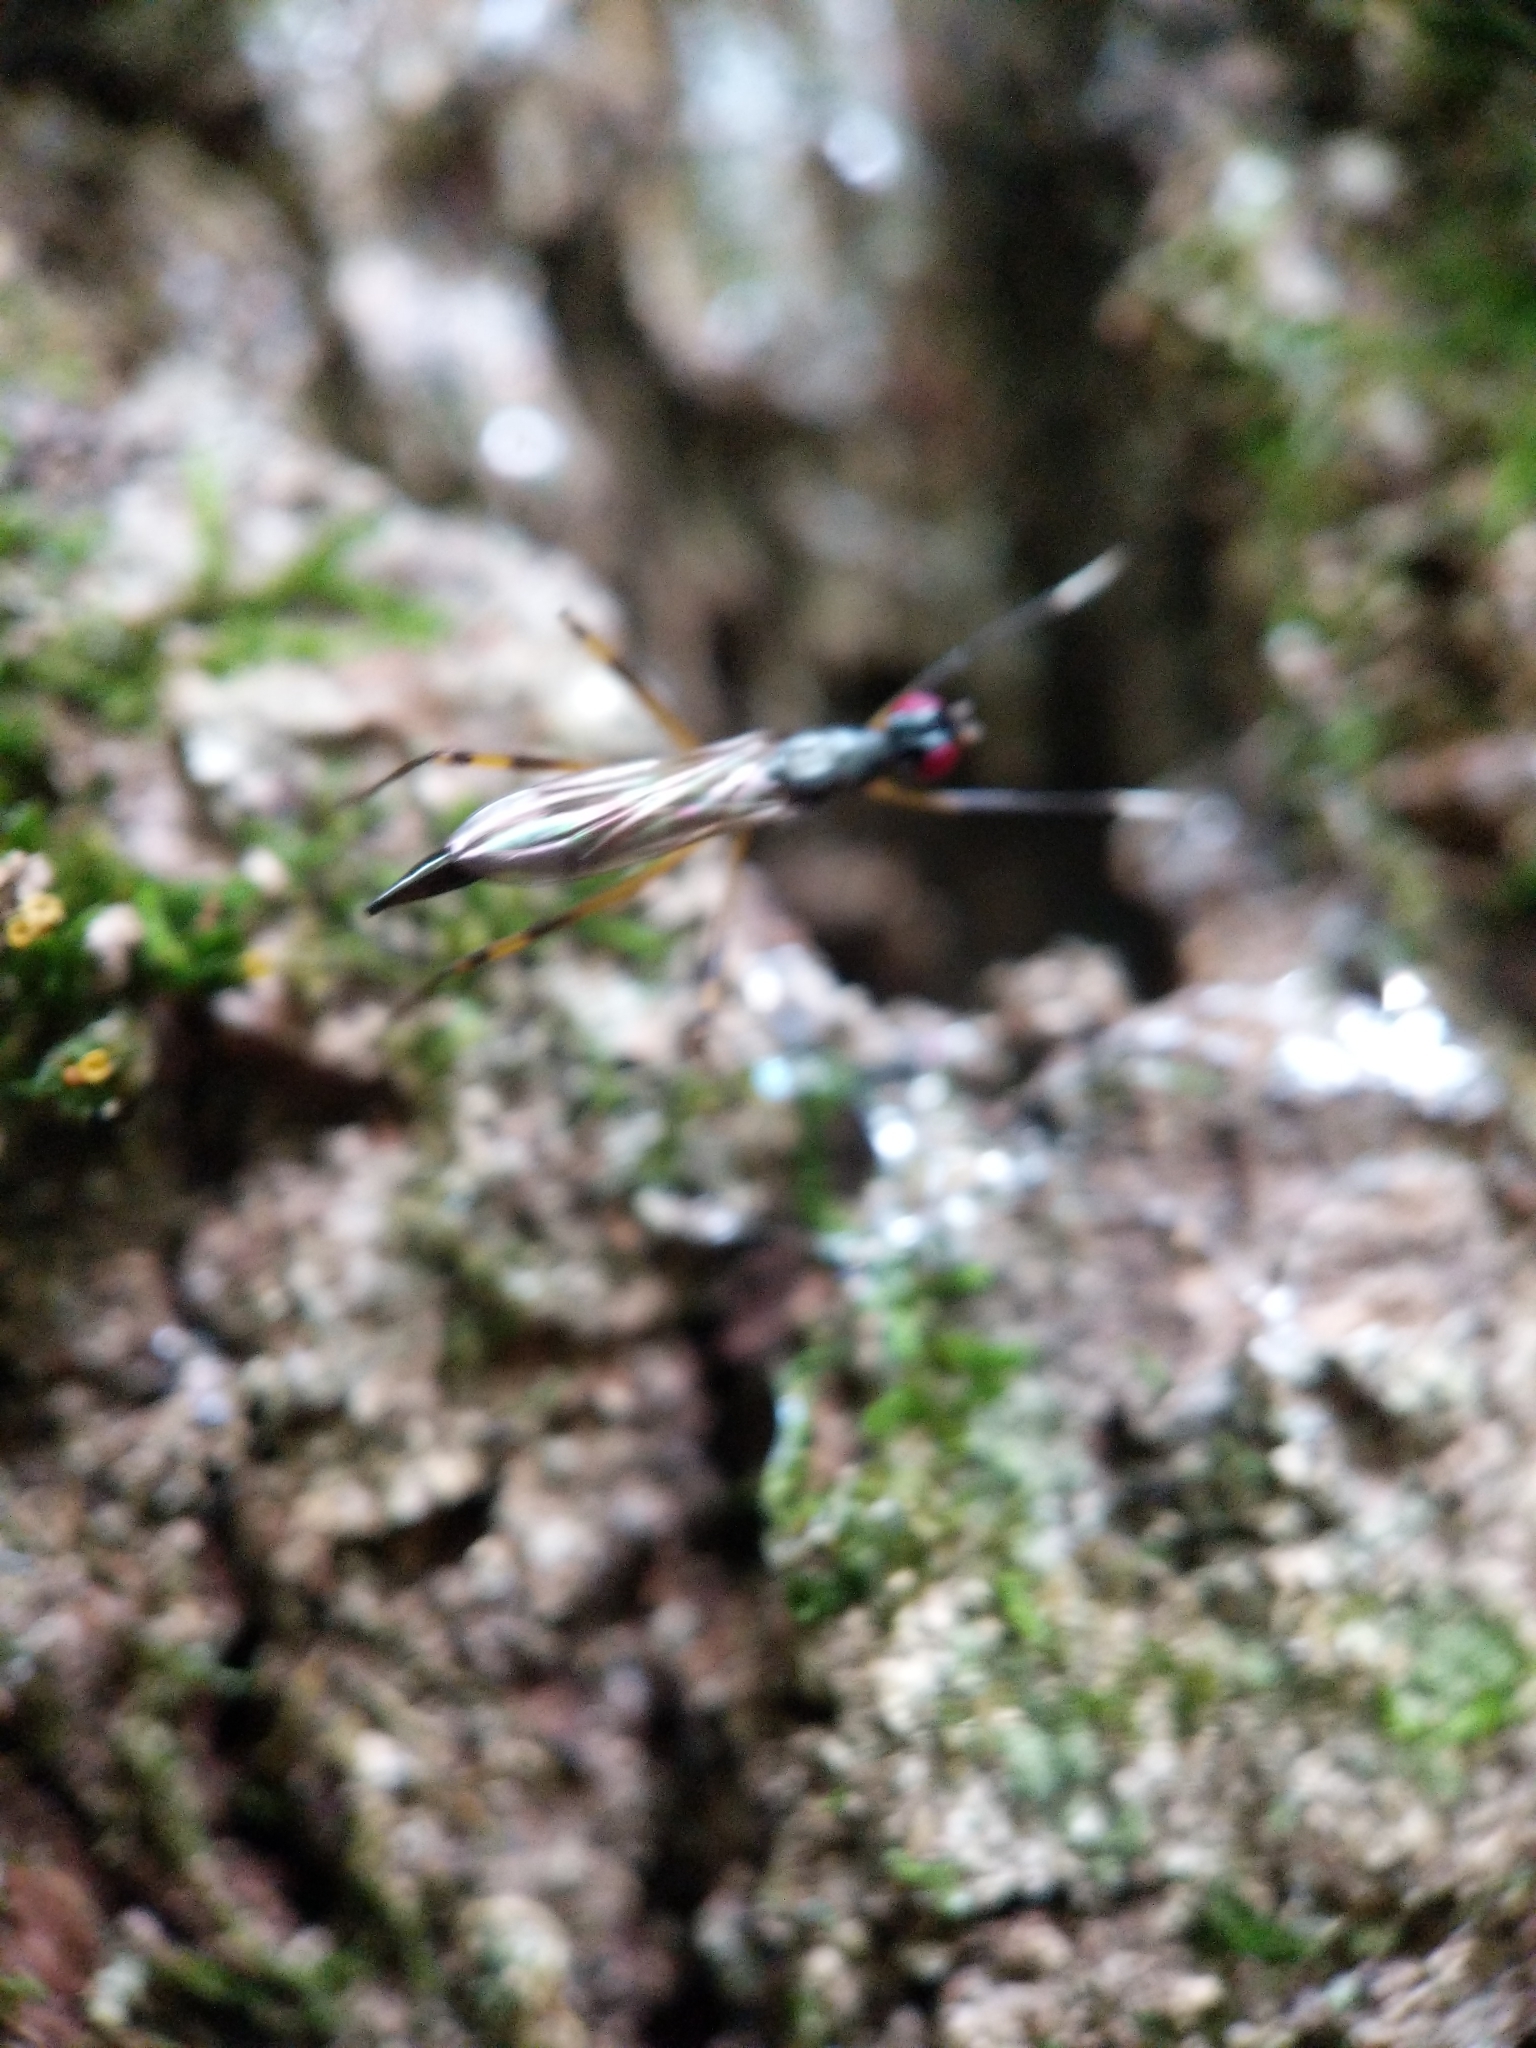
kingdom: Animalia
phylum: Arthropoda
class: Insecta
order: Diptera
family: Micropezidae
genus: Rainieria
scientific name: Rainieria antennaepes
